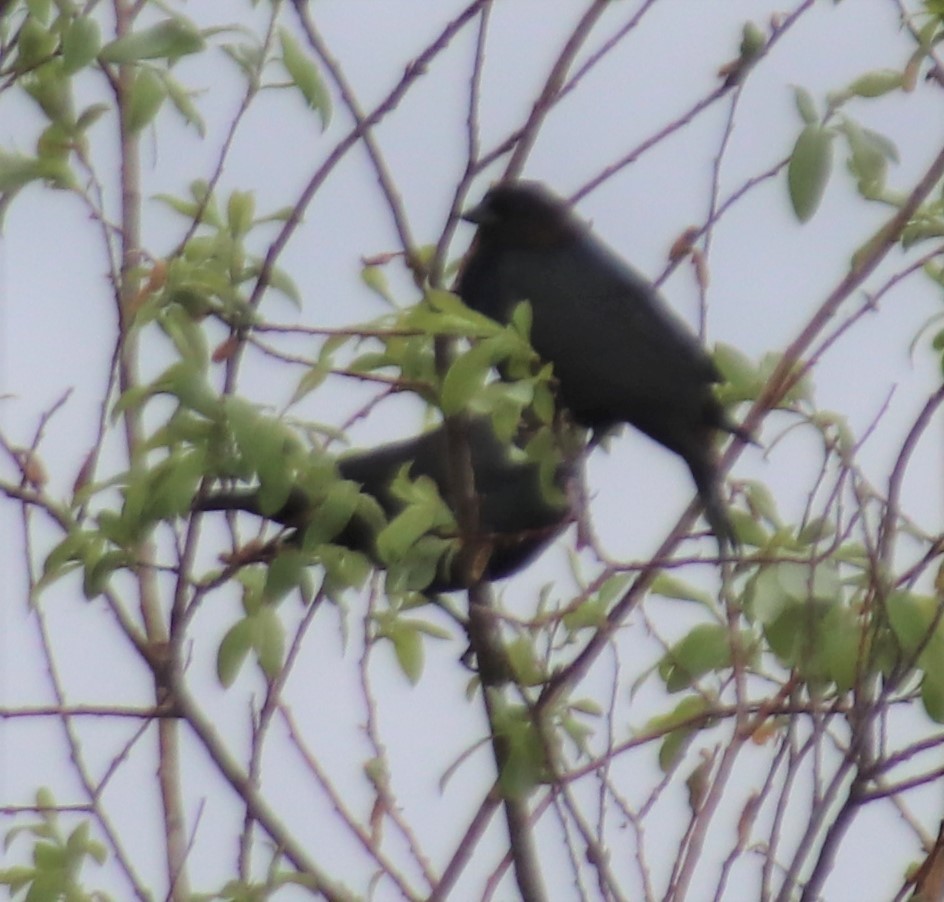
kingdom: Animalia
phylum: Chordata
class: Aves
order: Passeriformes
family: Icteridae
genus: Molothrus
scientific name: Molothrus ater
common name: Brown-headed cowbird
